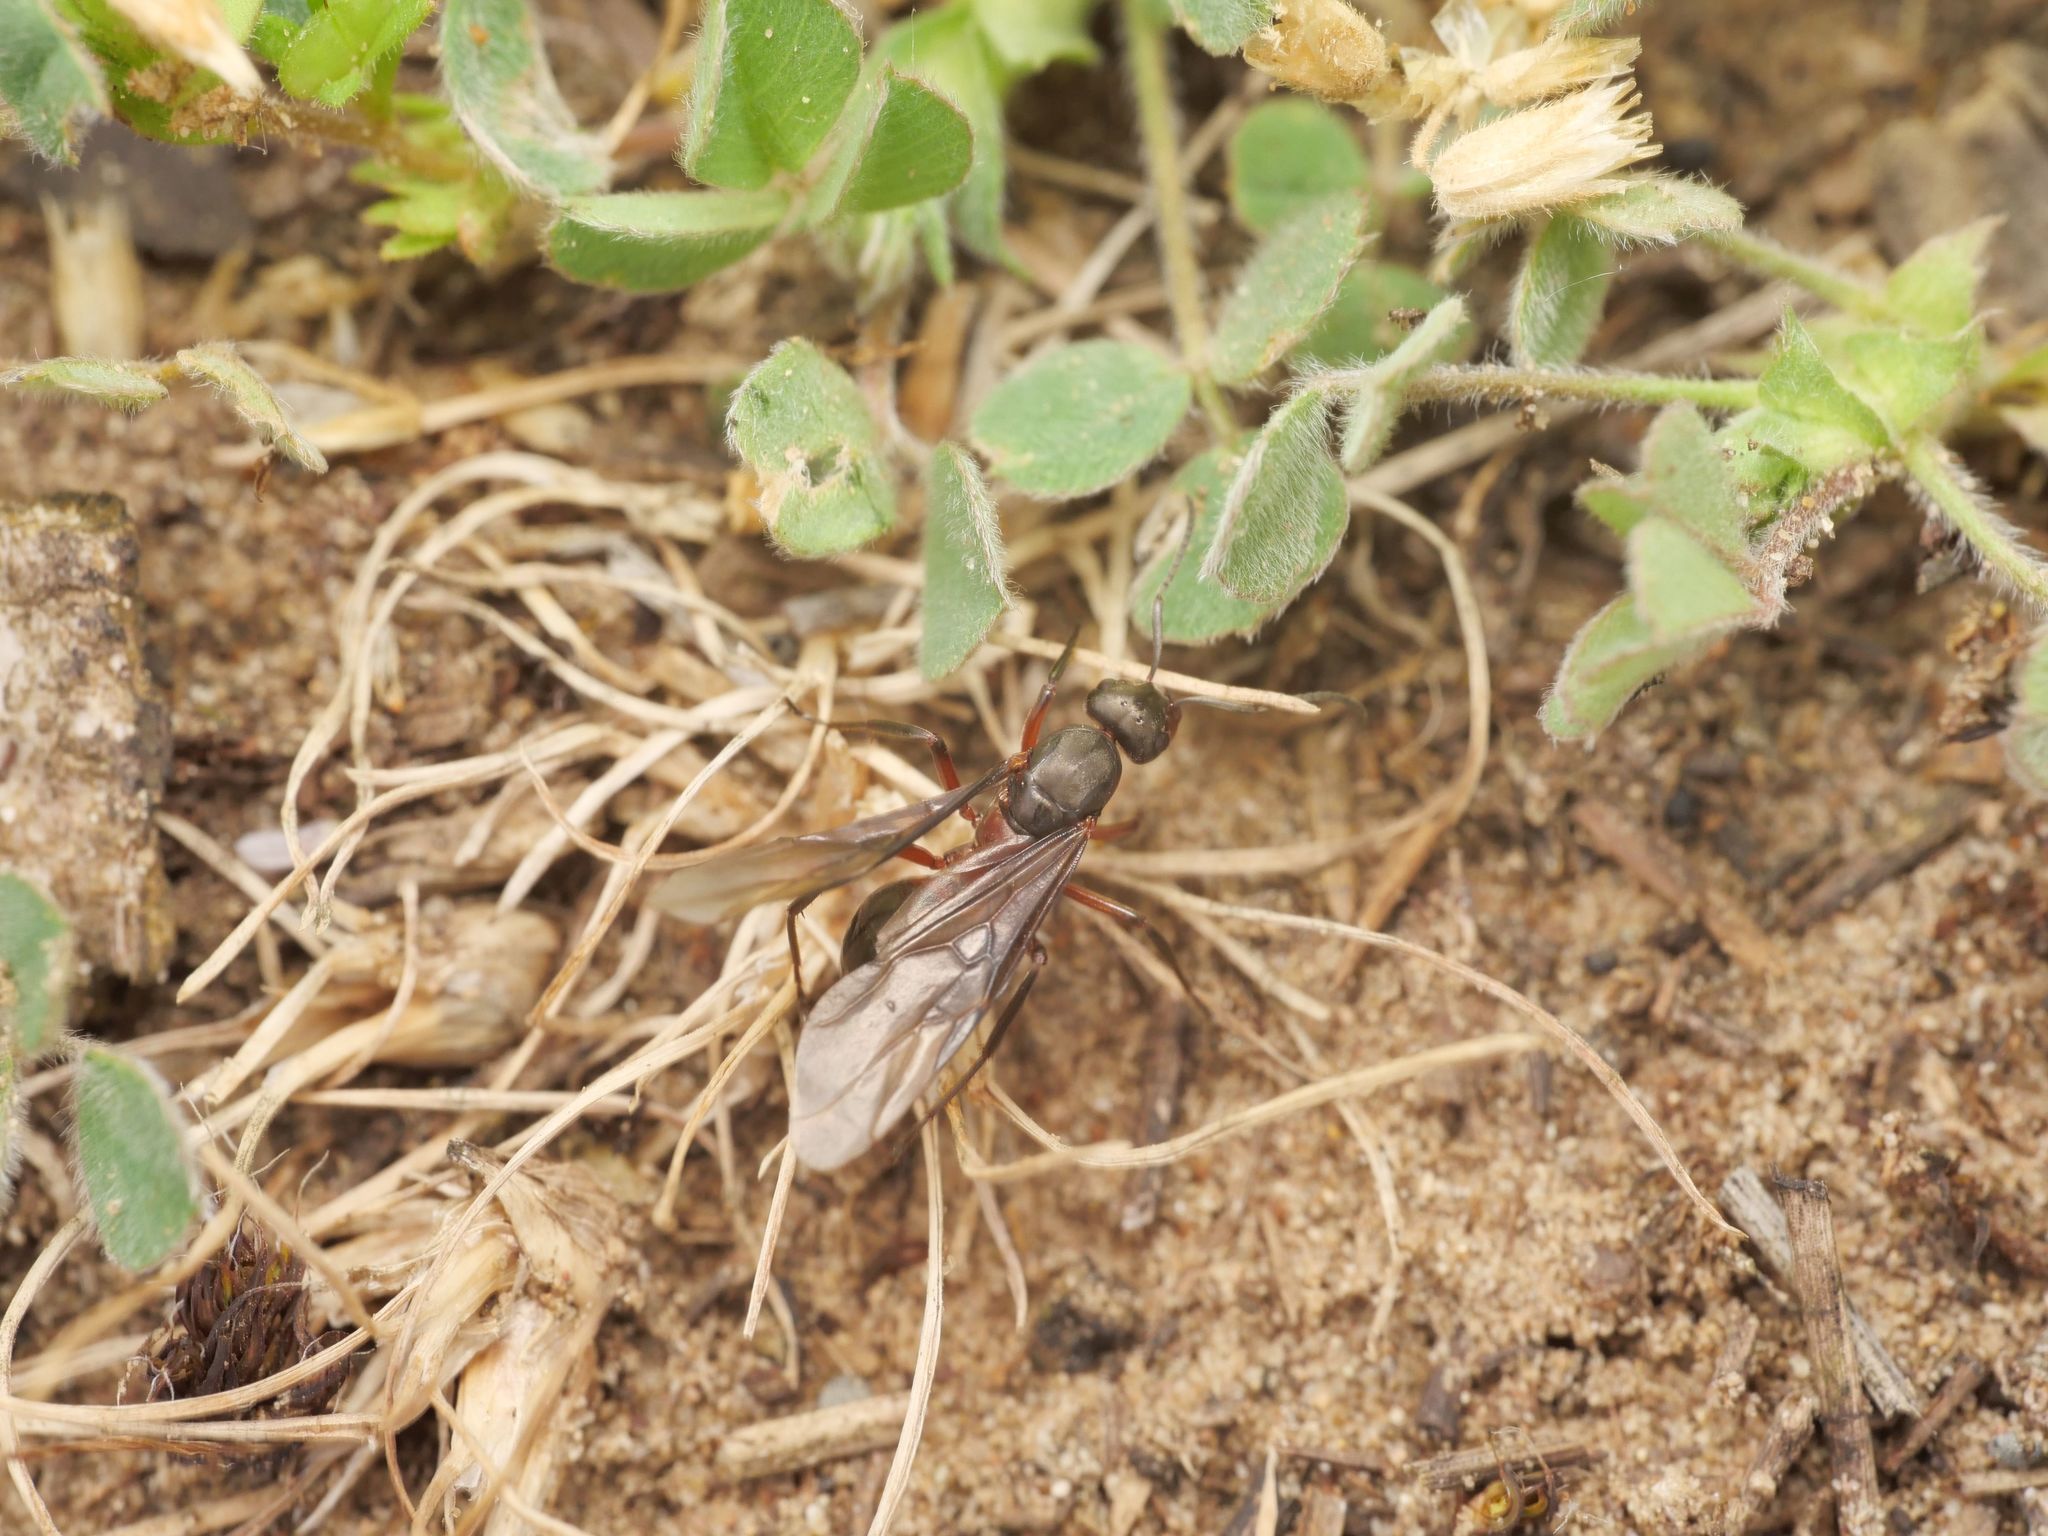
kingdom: Animalia
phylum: Arthropoda
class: Insecta
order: Hymenoptera
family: Formicidae
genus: Formica
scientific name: Formica pratensis
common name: European red wood ant
